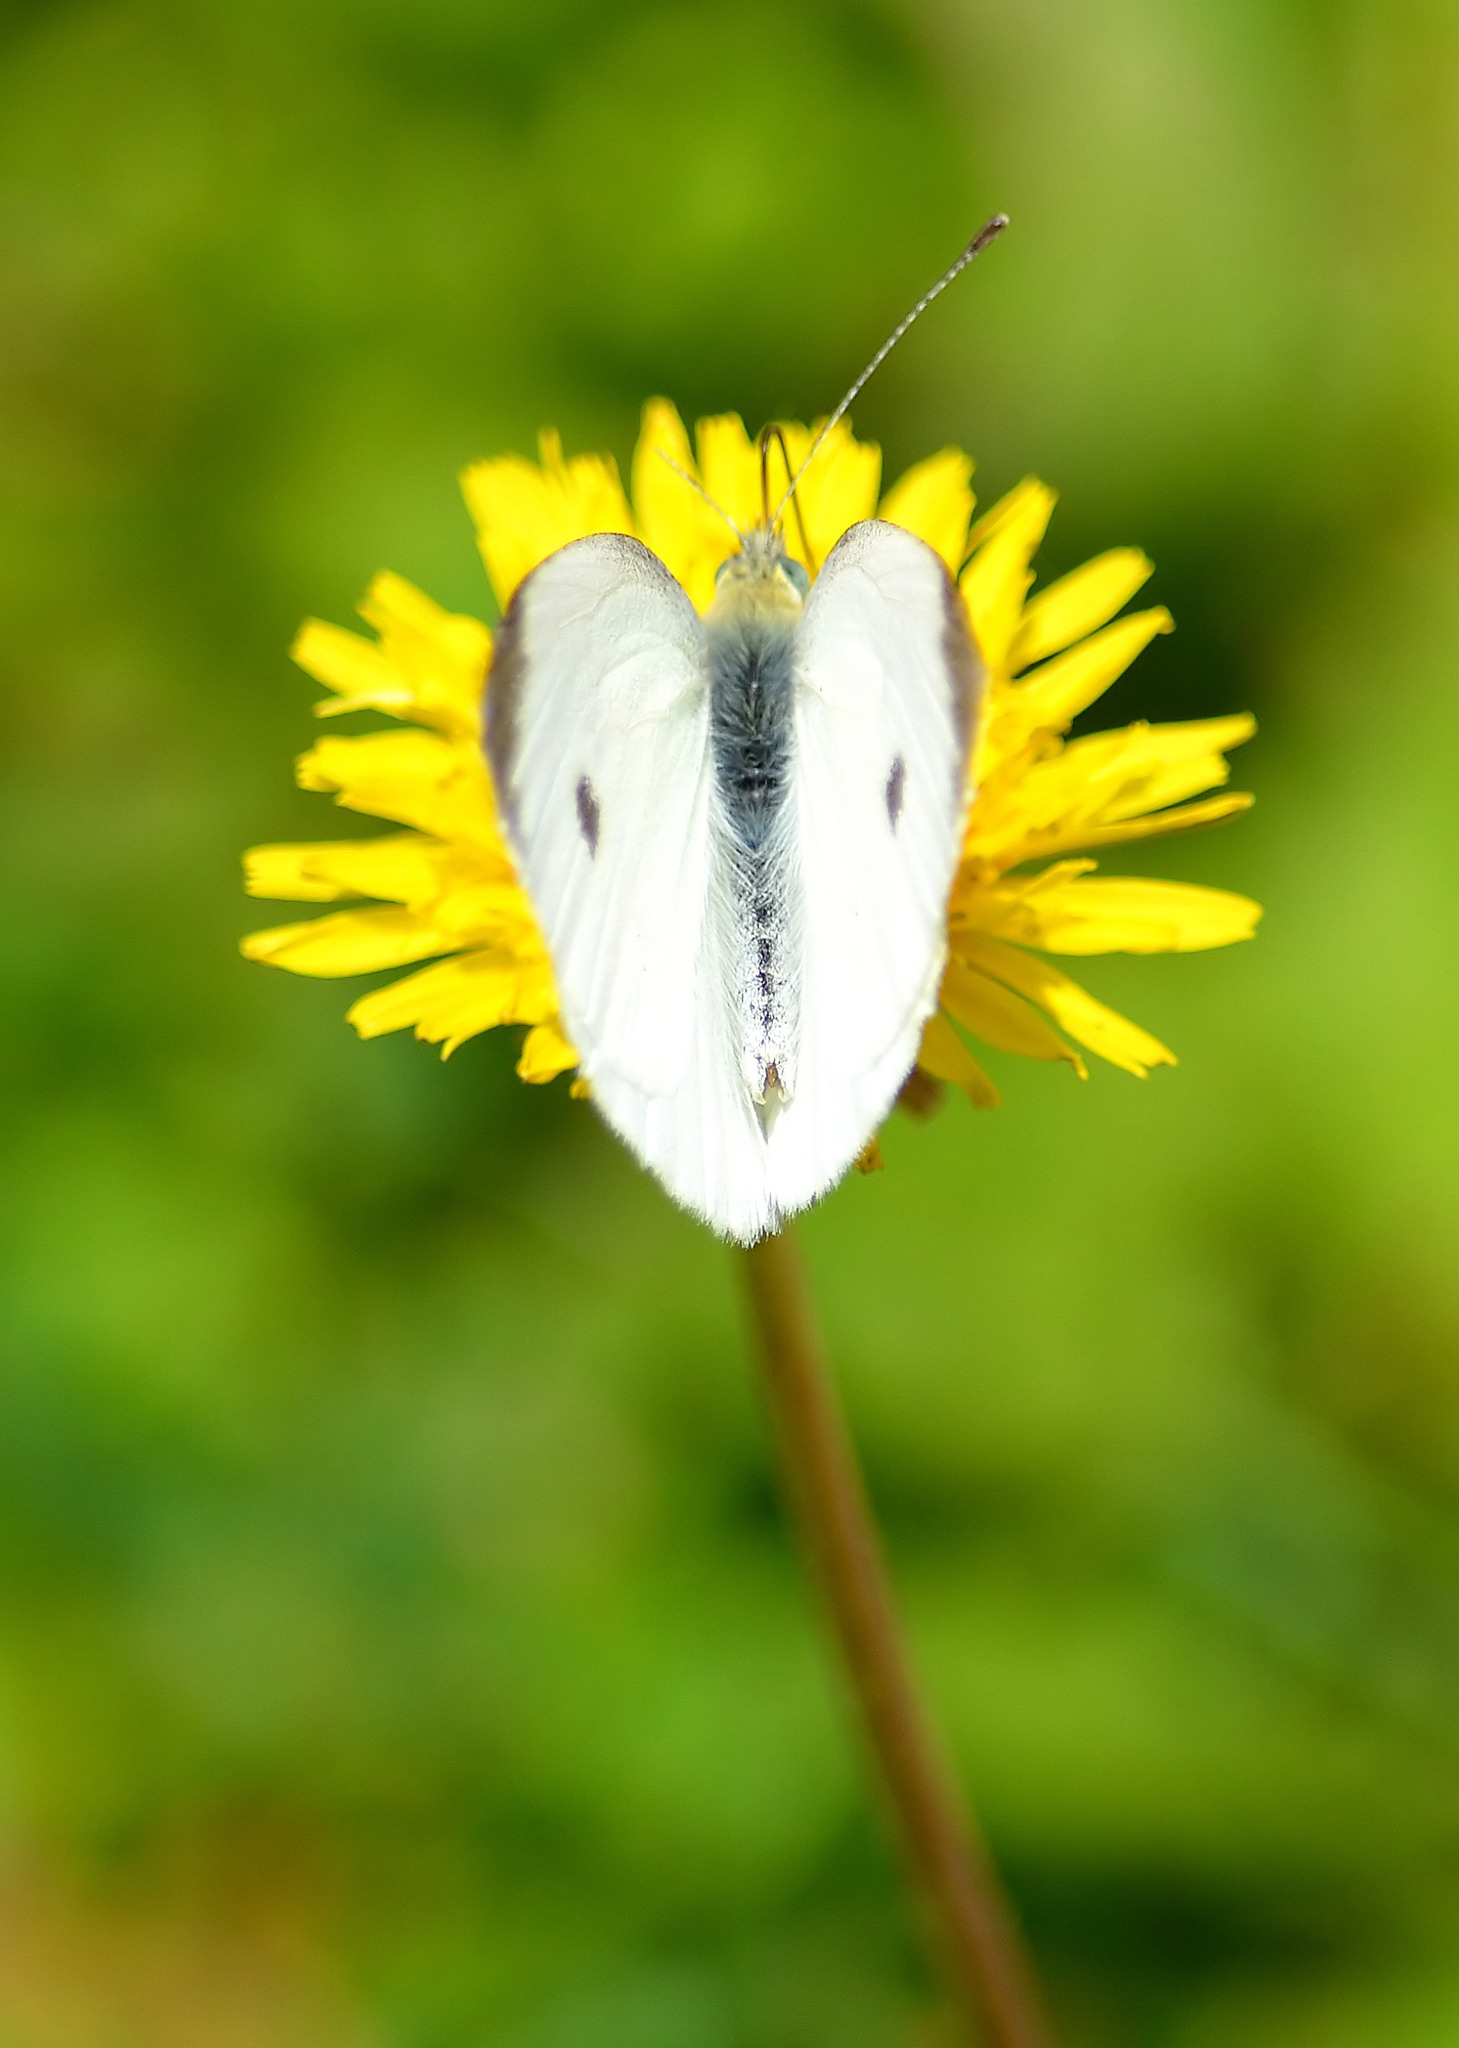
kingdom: Animalia
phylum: Arthropoda
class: Insecta
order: Lepidoptera
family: Pieridae
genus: Pieris
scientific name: Pieris rapae
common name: Small white
